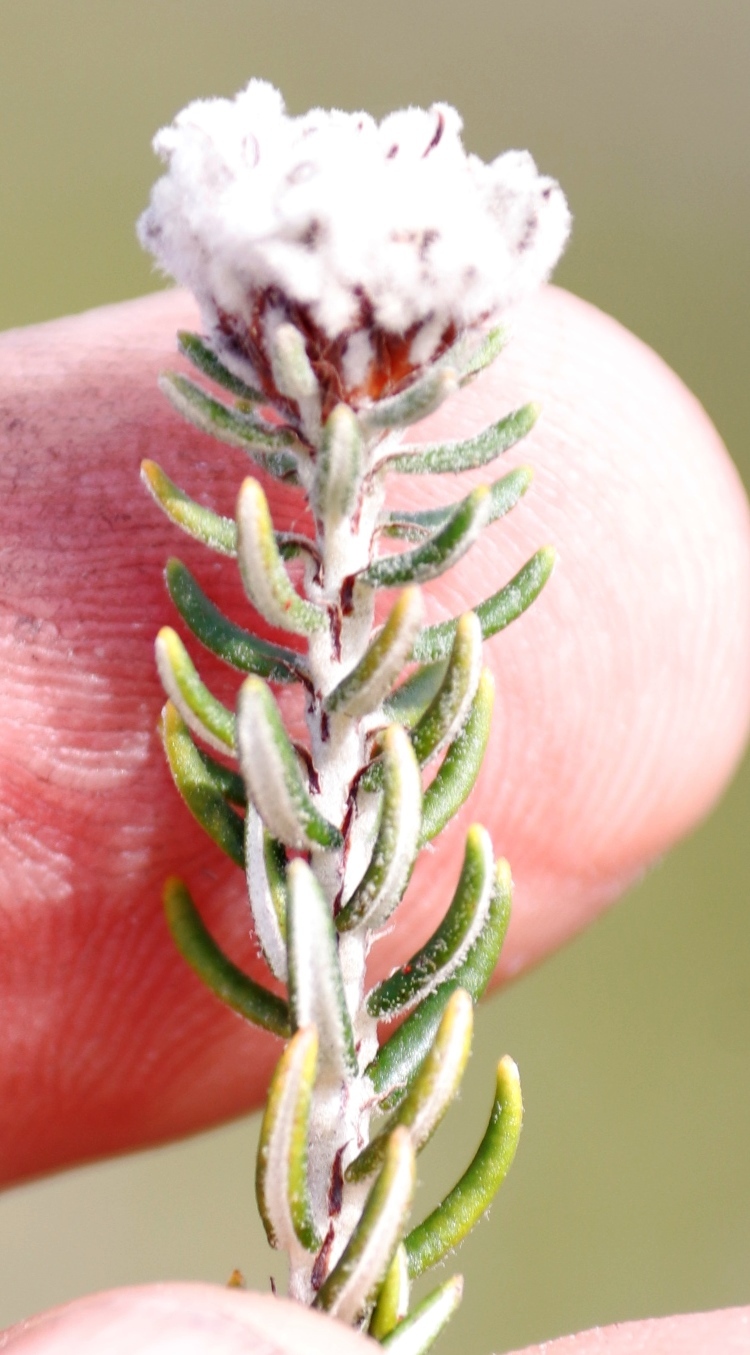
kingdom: Plantae
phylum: Tracheophyta
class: Magnoliopsida
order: Rosales
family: Rhamnaceae
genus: Trichocephalus
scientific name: Trichocephalus stipularis
